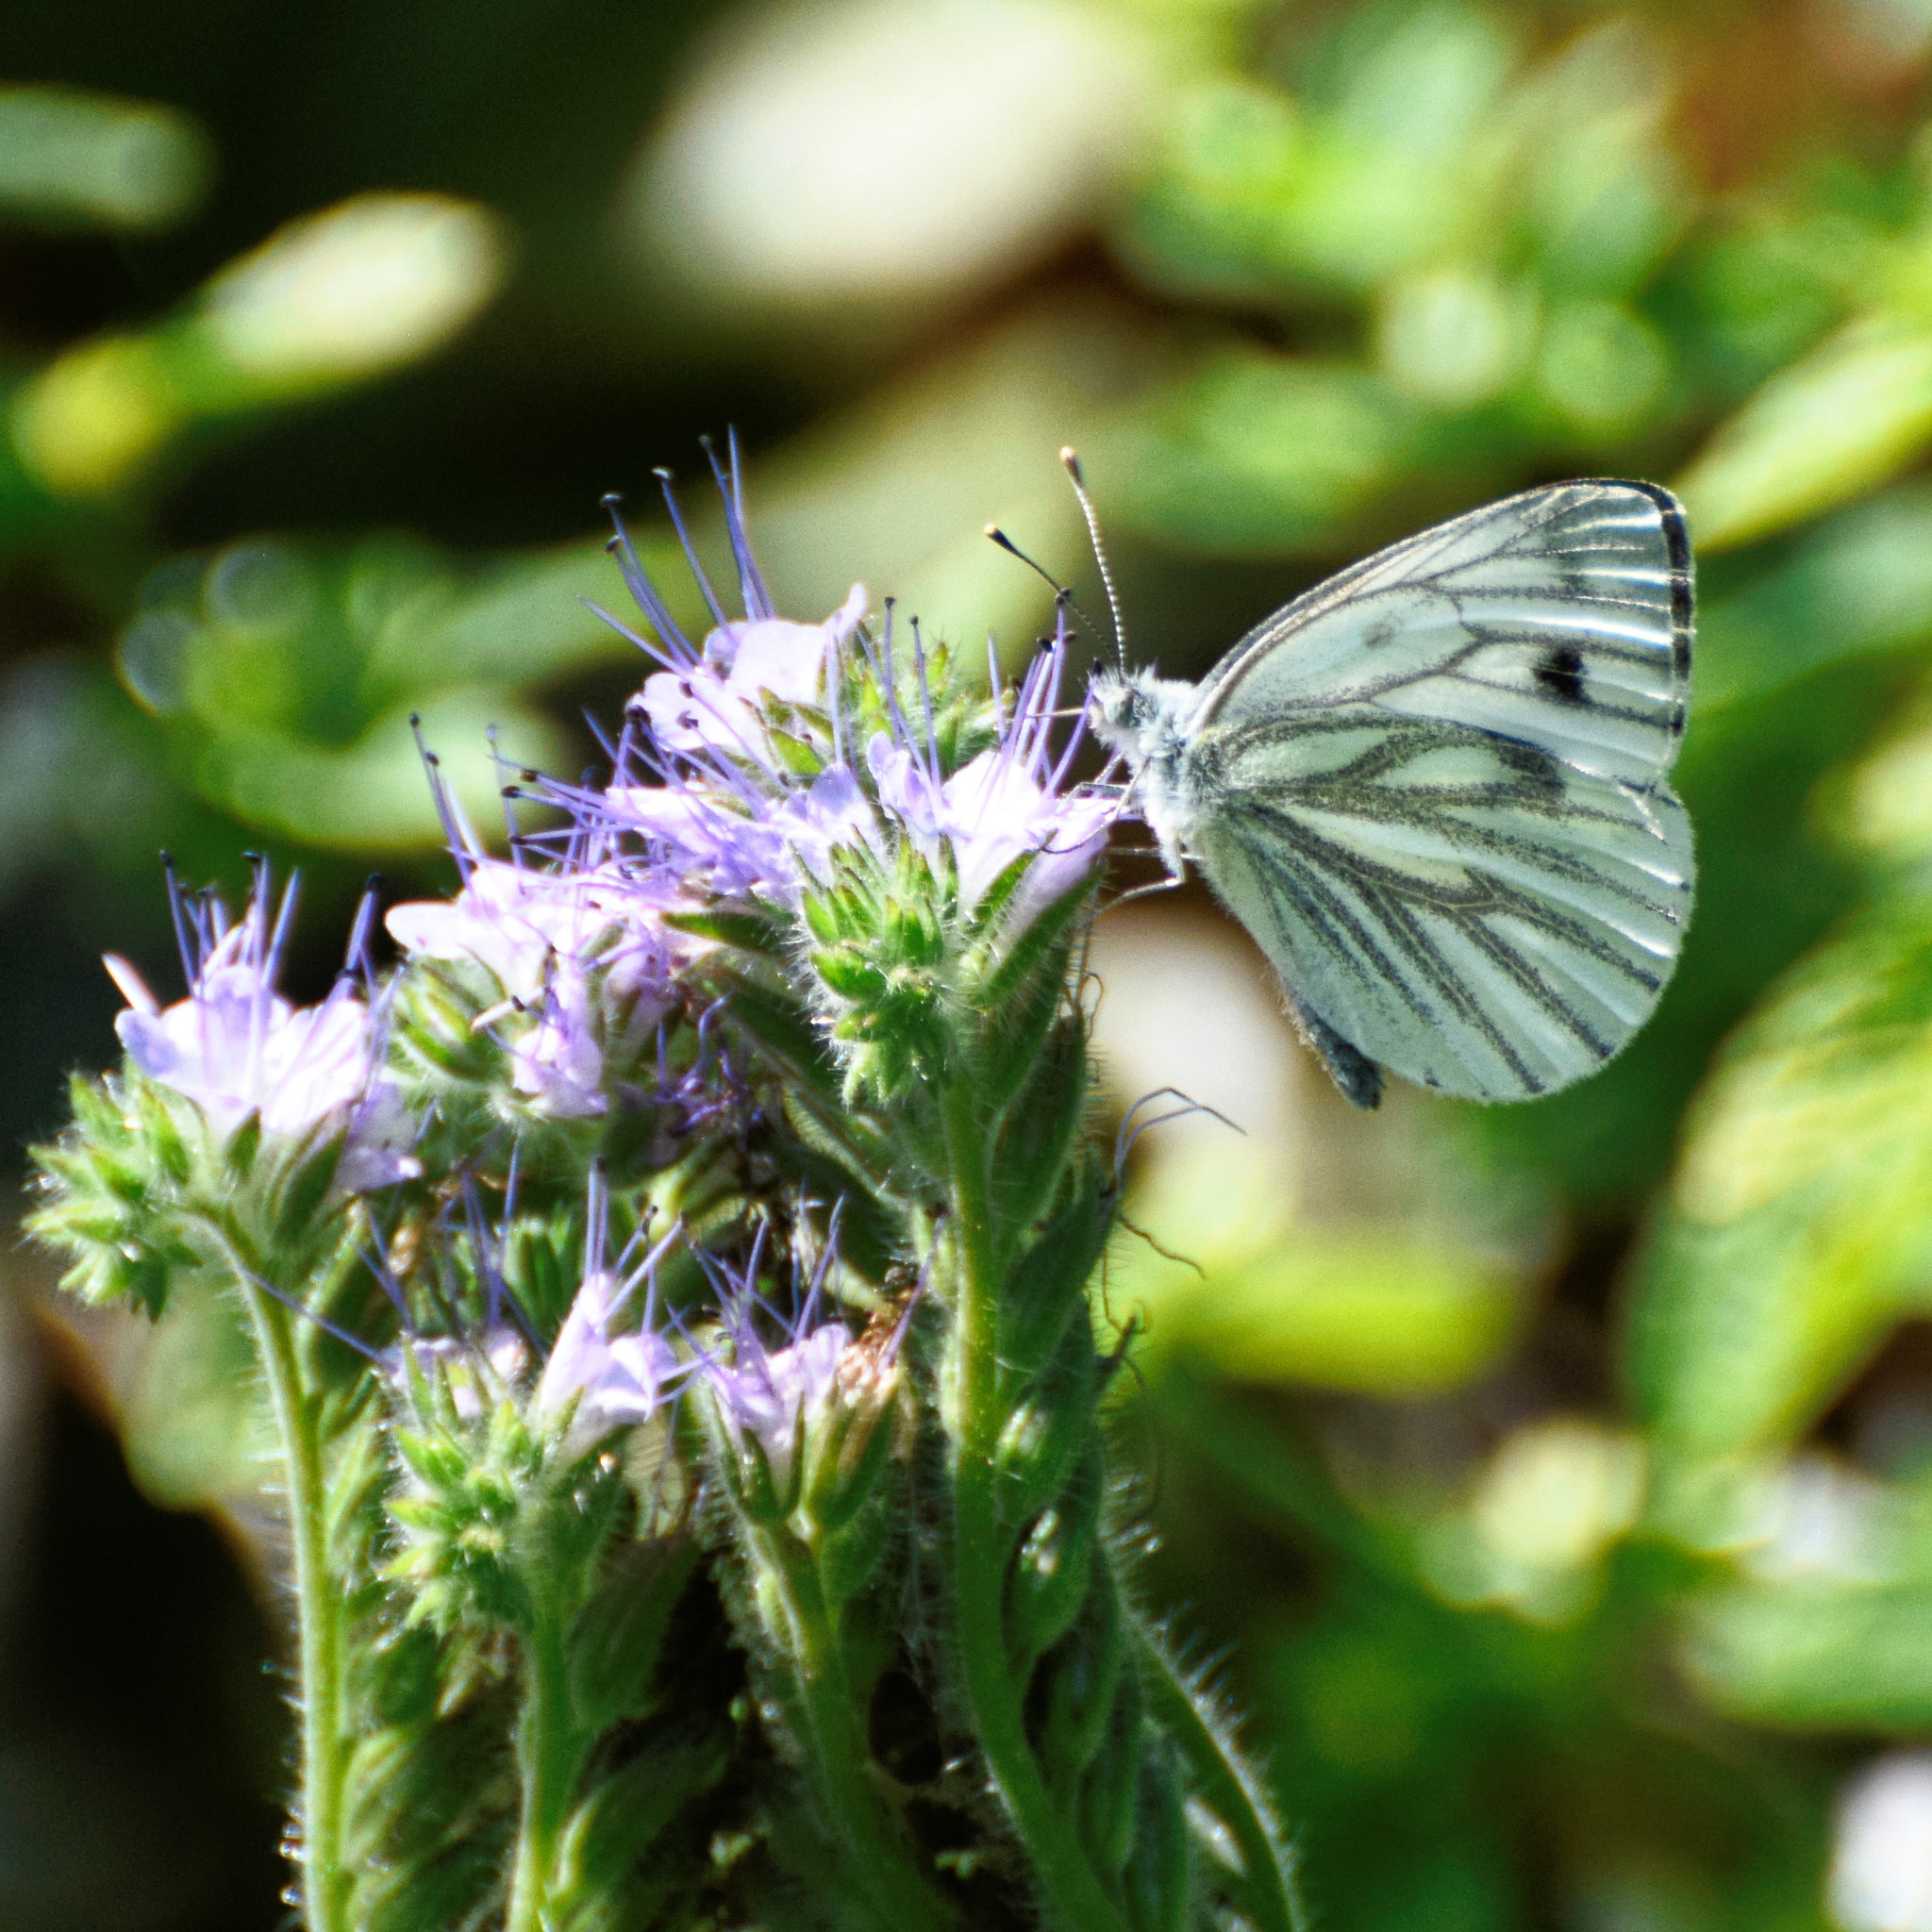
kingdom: Animalia
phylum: Arthropoda
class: Insecta
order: Lepidoptera
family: Pieridae
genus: Pieris
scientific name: Pieris napi
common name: Green-veined white
